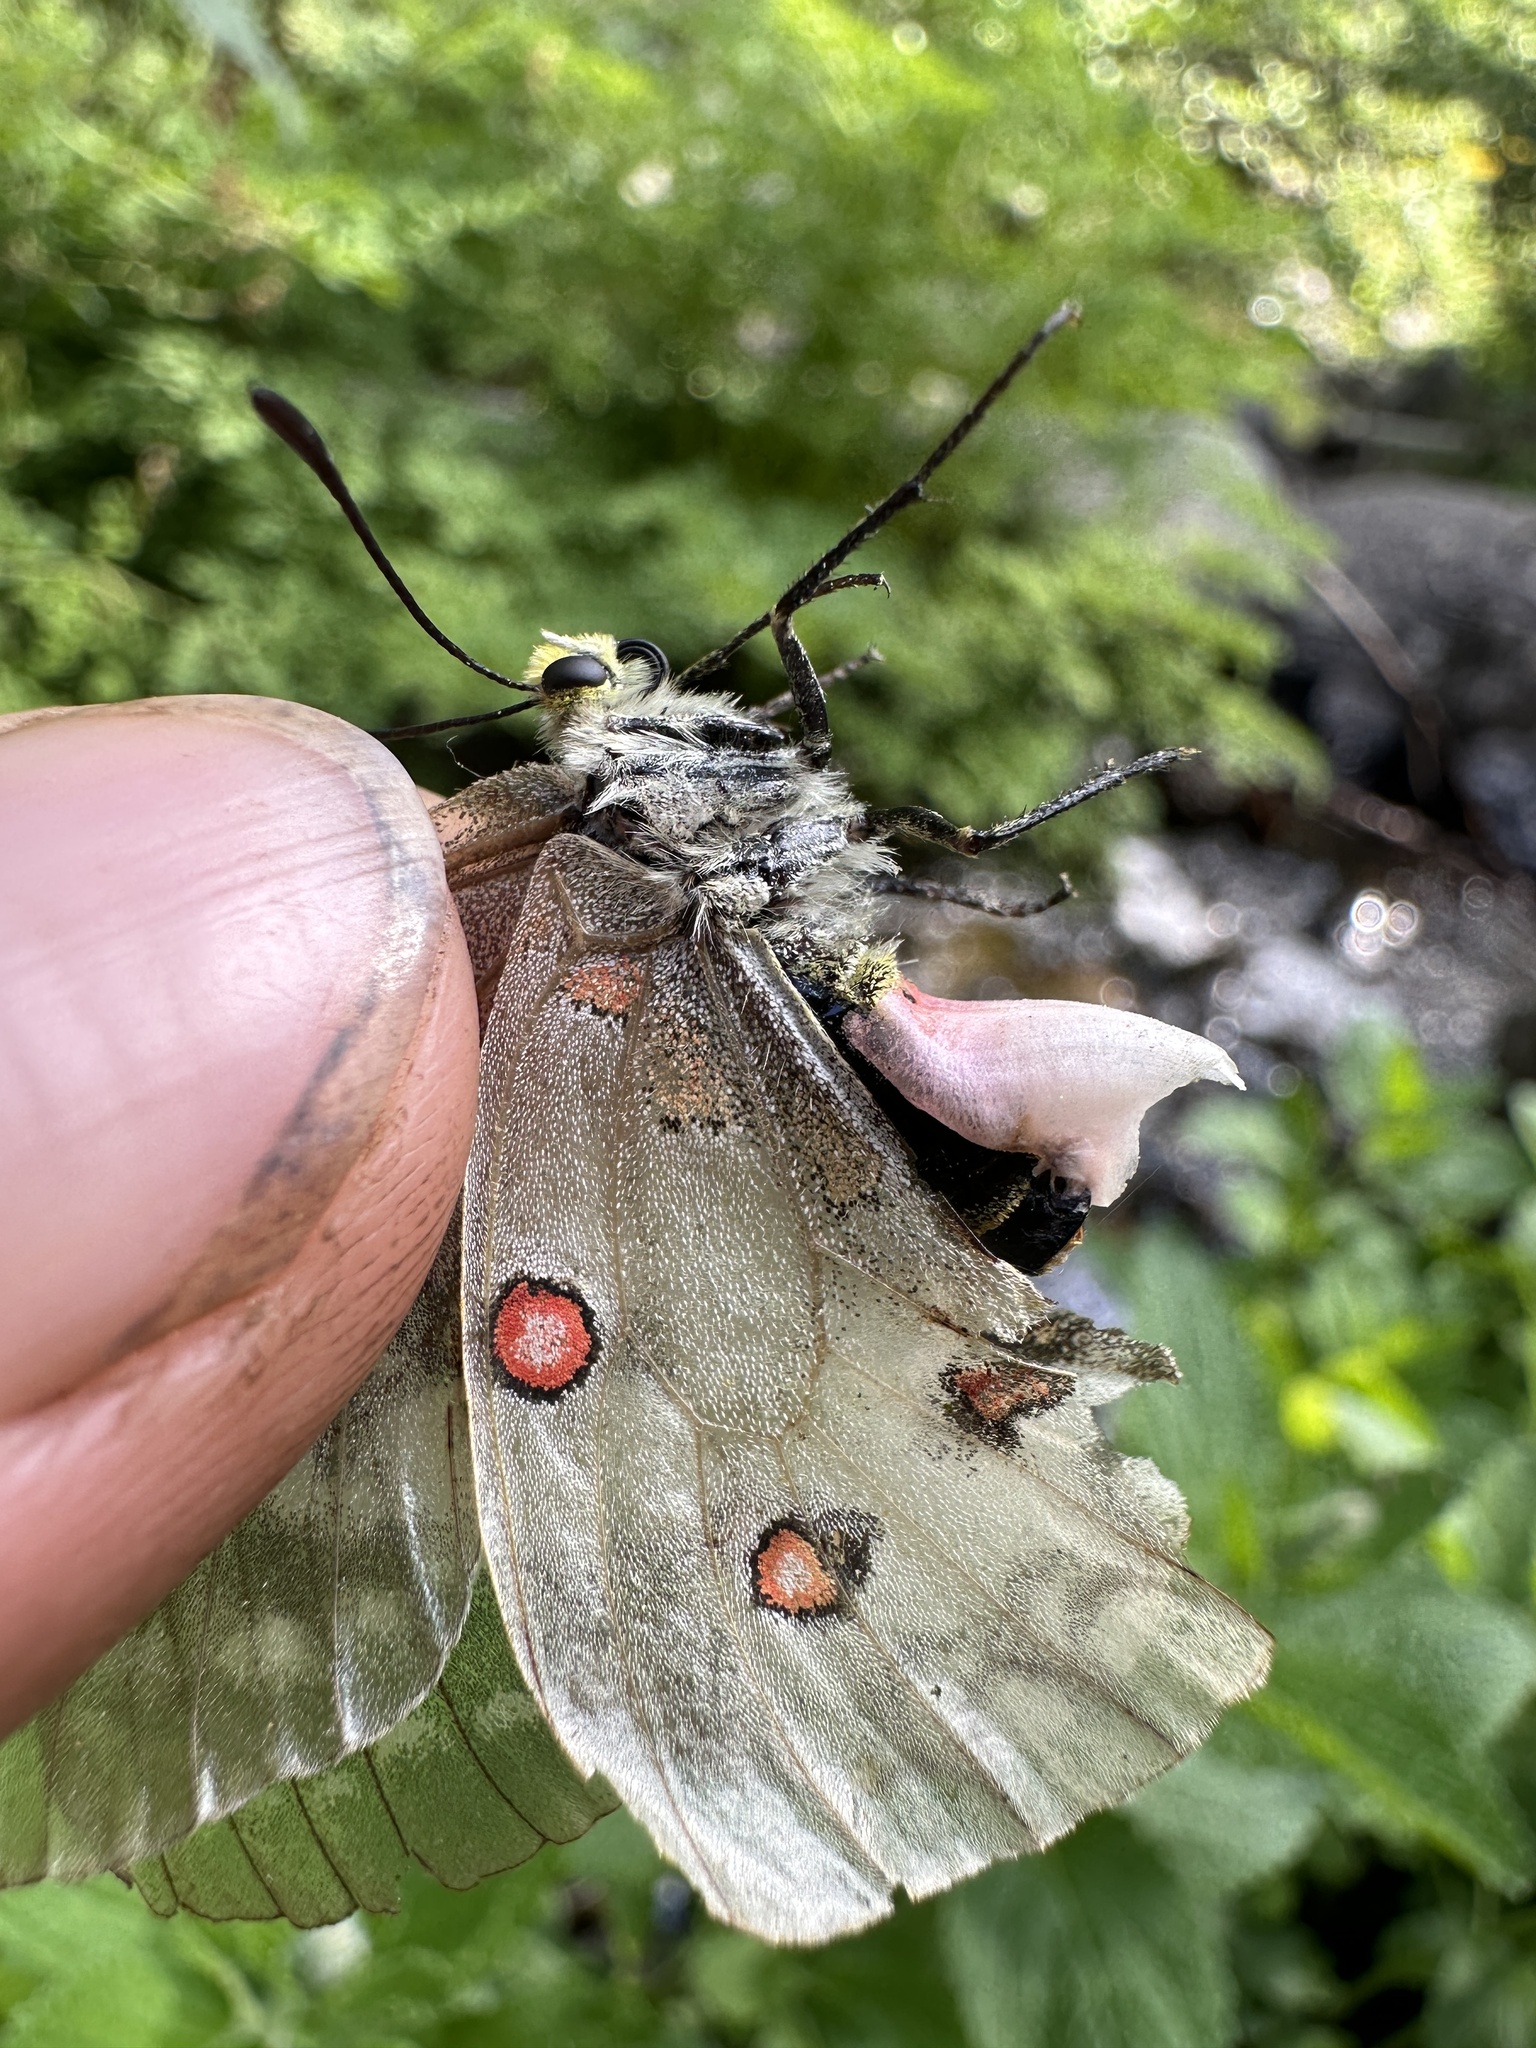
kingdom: Animalia
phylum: Arthropoda
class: Insecta
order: Lepidoptera
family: Papilionidae
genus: Parnassius
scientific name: Parnassius clodius
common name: American apollo
